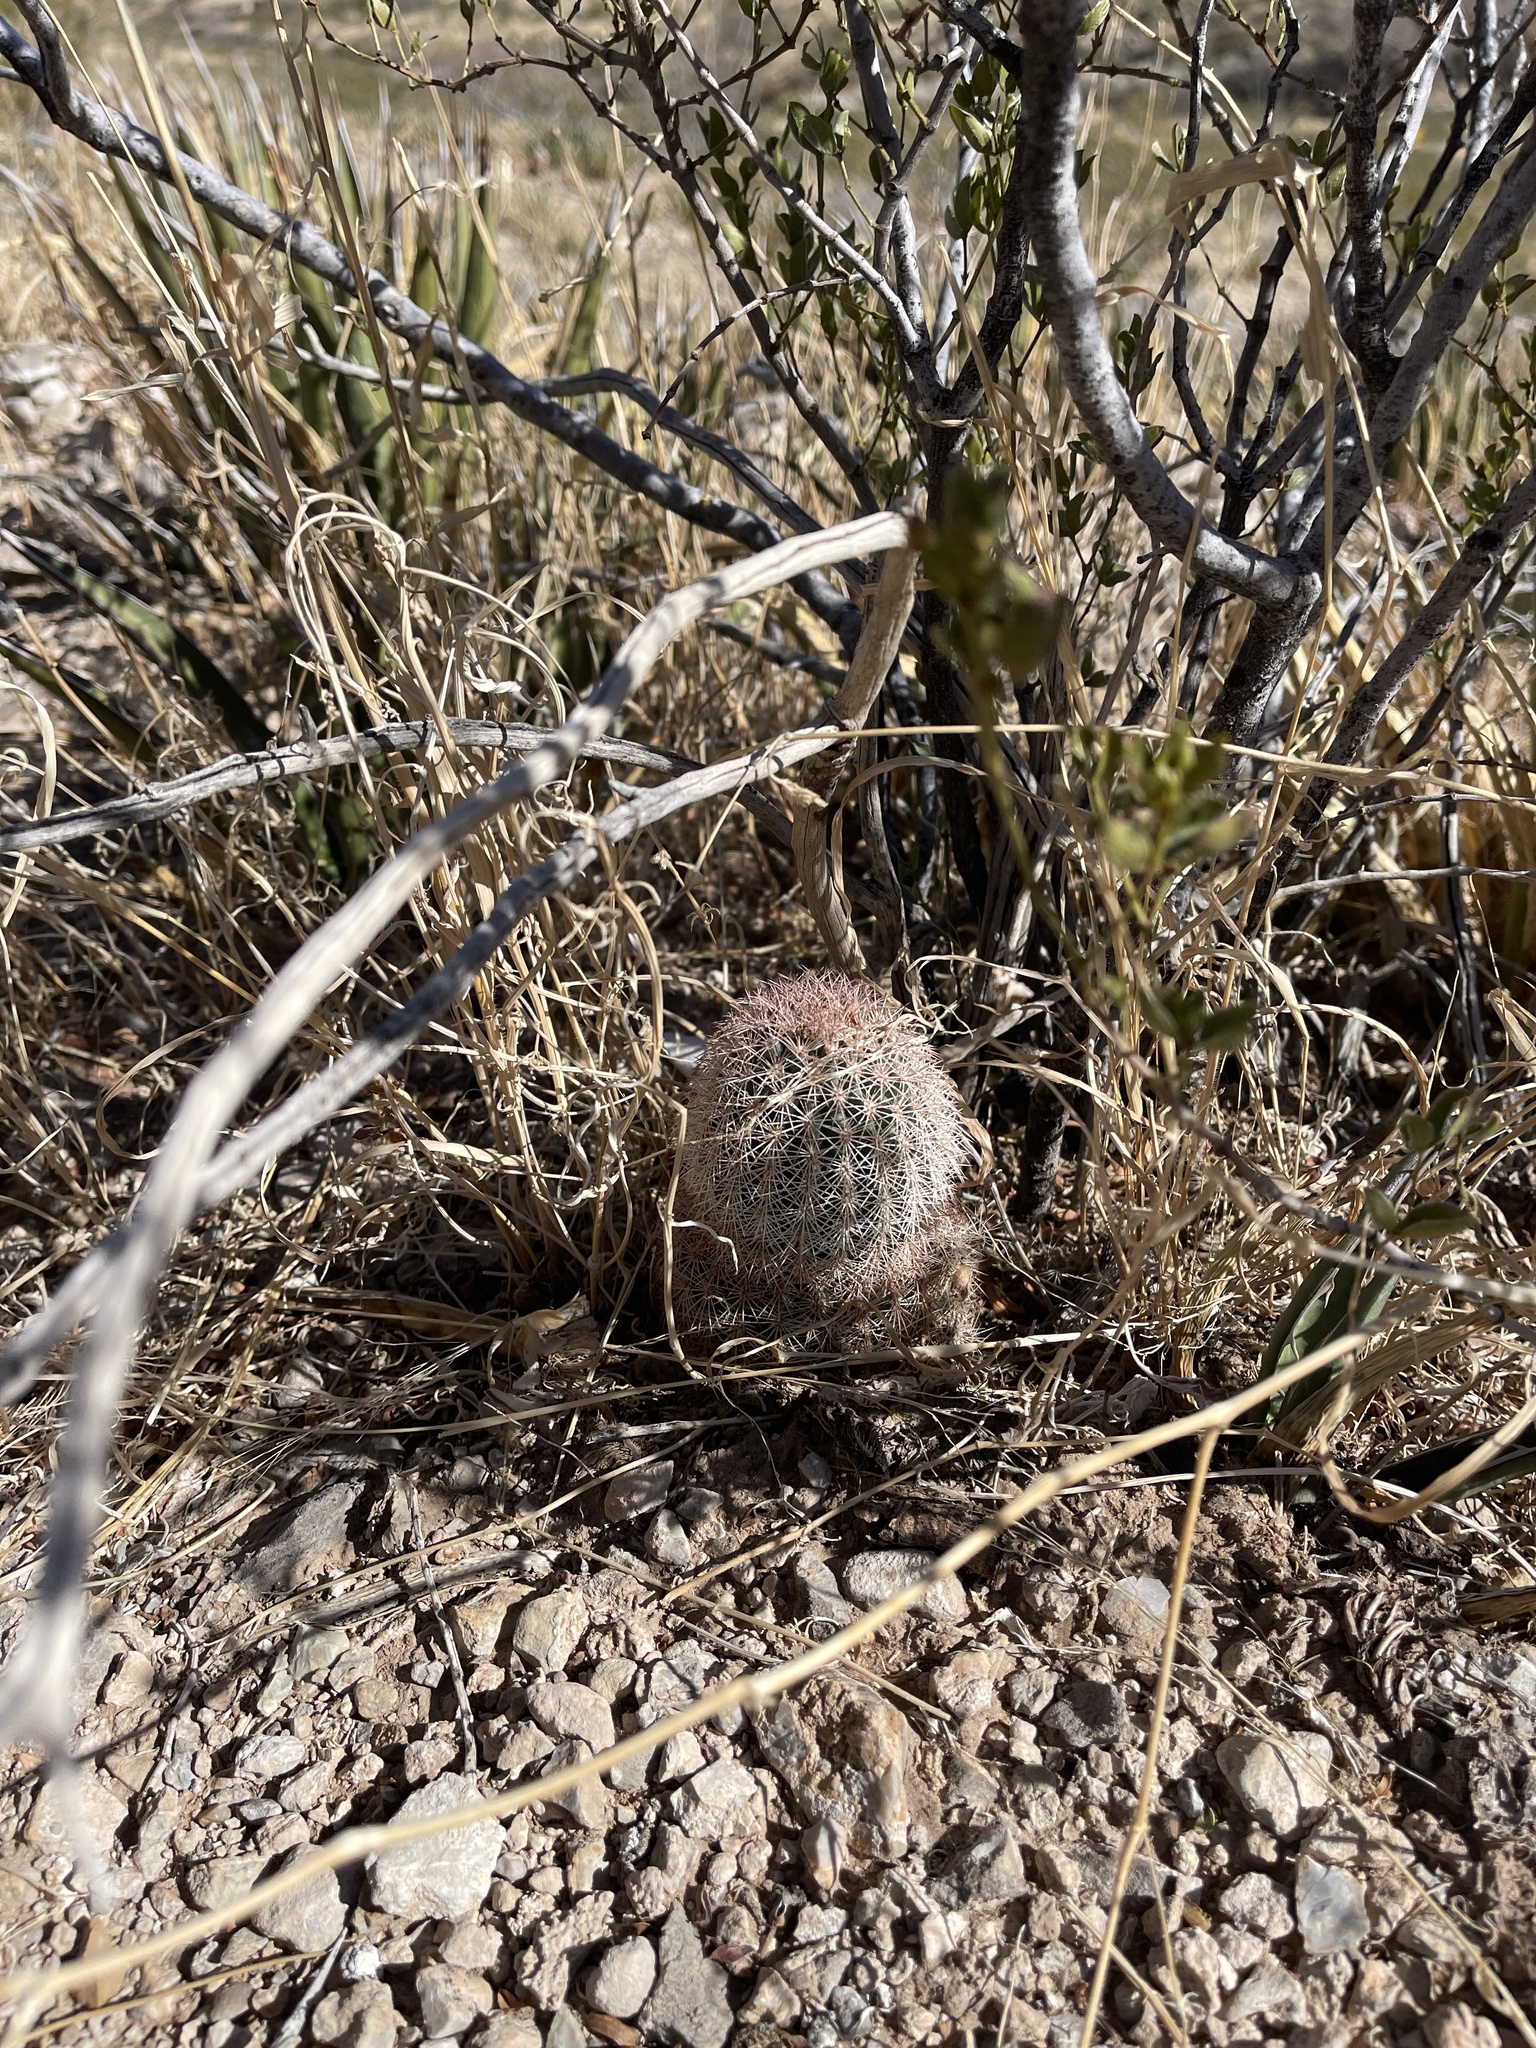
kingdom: Plantae
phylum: Tracheophyta
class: Magnoliopsida
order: Caryophyllales
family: Cactaceae
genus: Echinocereus
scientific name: Echinocereus dasyacanthus
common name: Spiny hedgehog cactus
